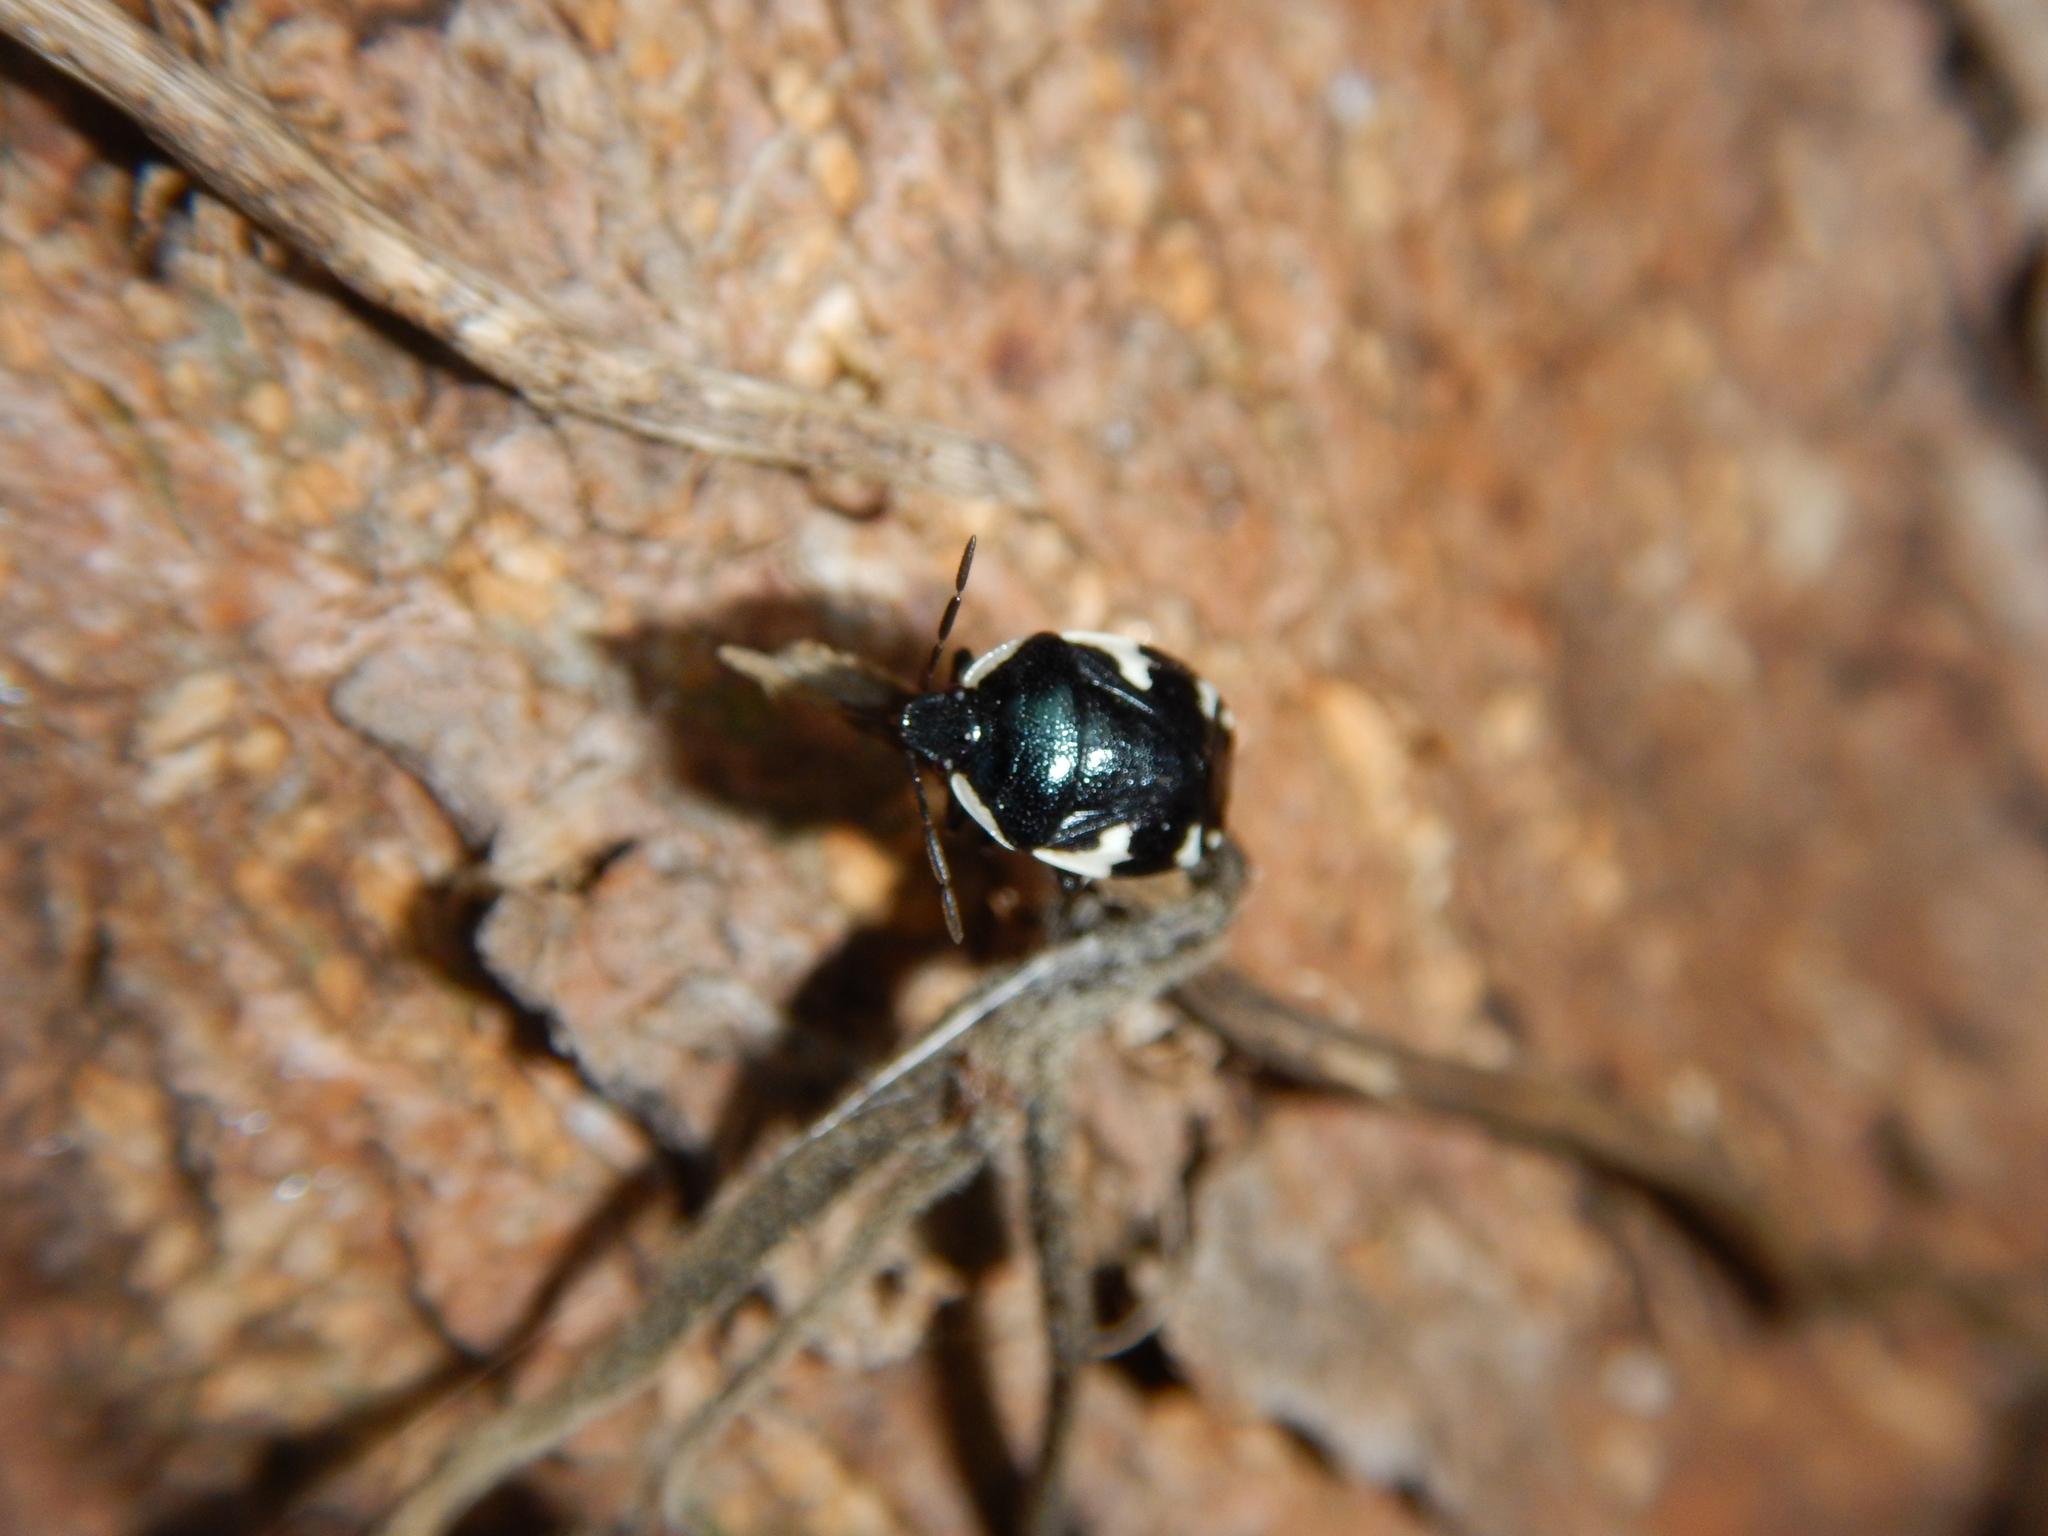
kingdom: Animalia
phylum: Arthropoda
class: Insecta
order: Hemiptera
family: Cydnidae
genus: Tritomegas
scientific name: Tritomegas sexmaculatus
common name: Rambur's pied shieldbug
